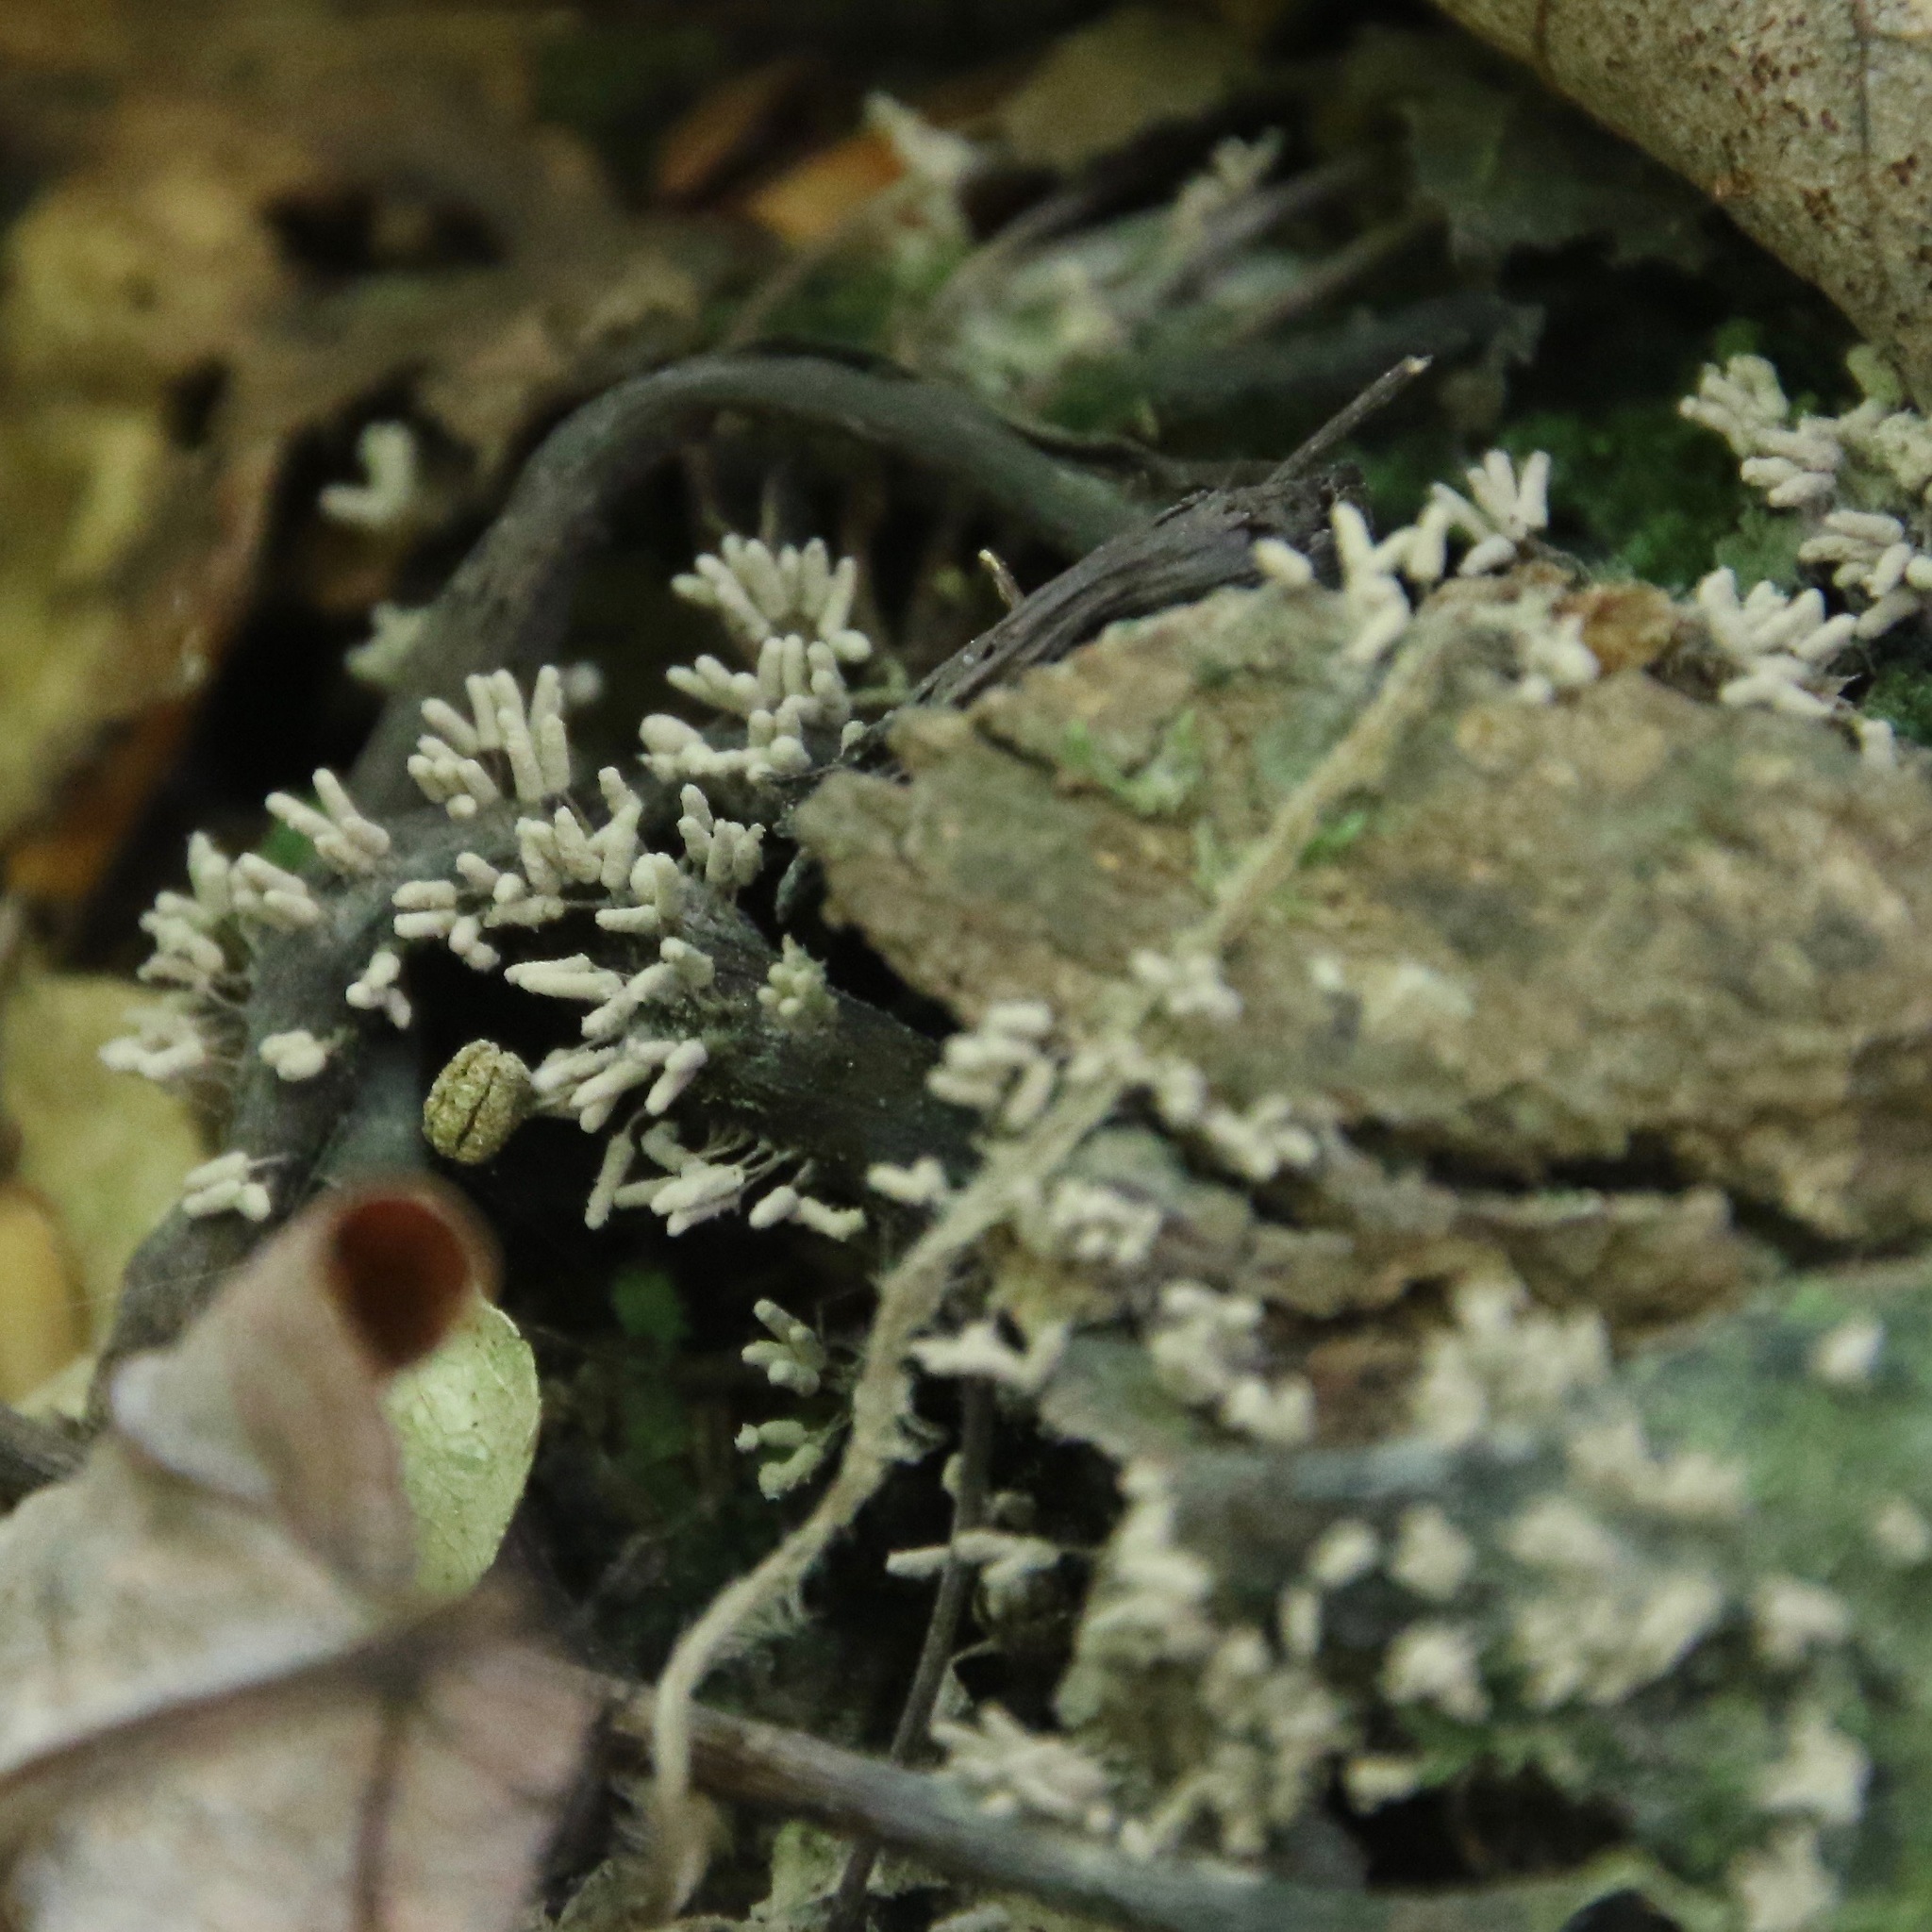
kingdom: Protozoa
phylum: Mycetozoa
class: Myxomycetes
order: Trichiales
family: Arcyriaceae
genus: Arcyria
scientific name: Arcyria cinerea
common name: White carnival candy slime mold
